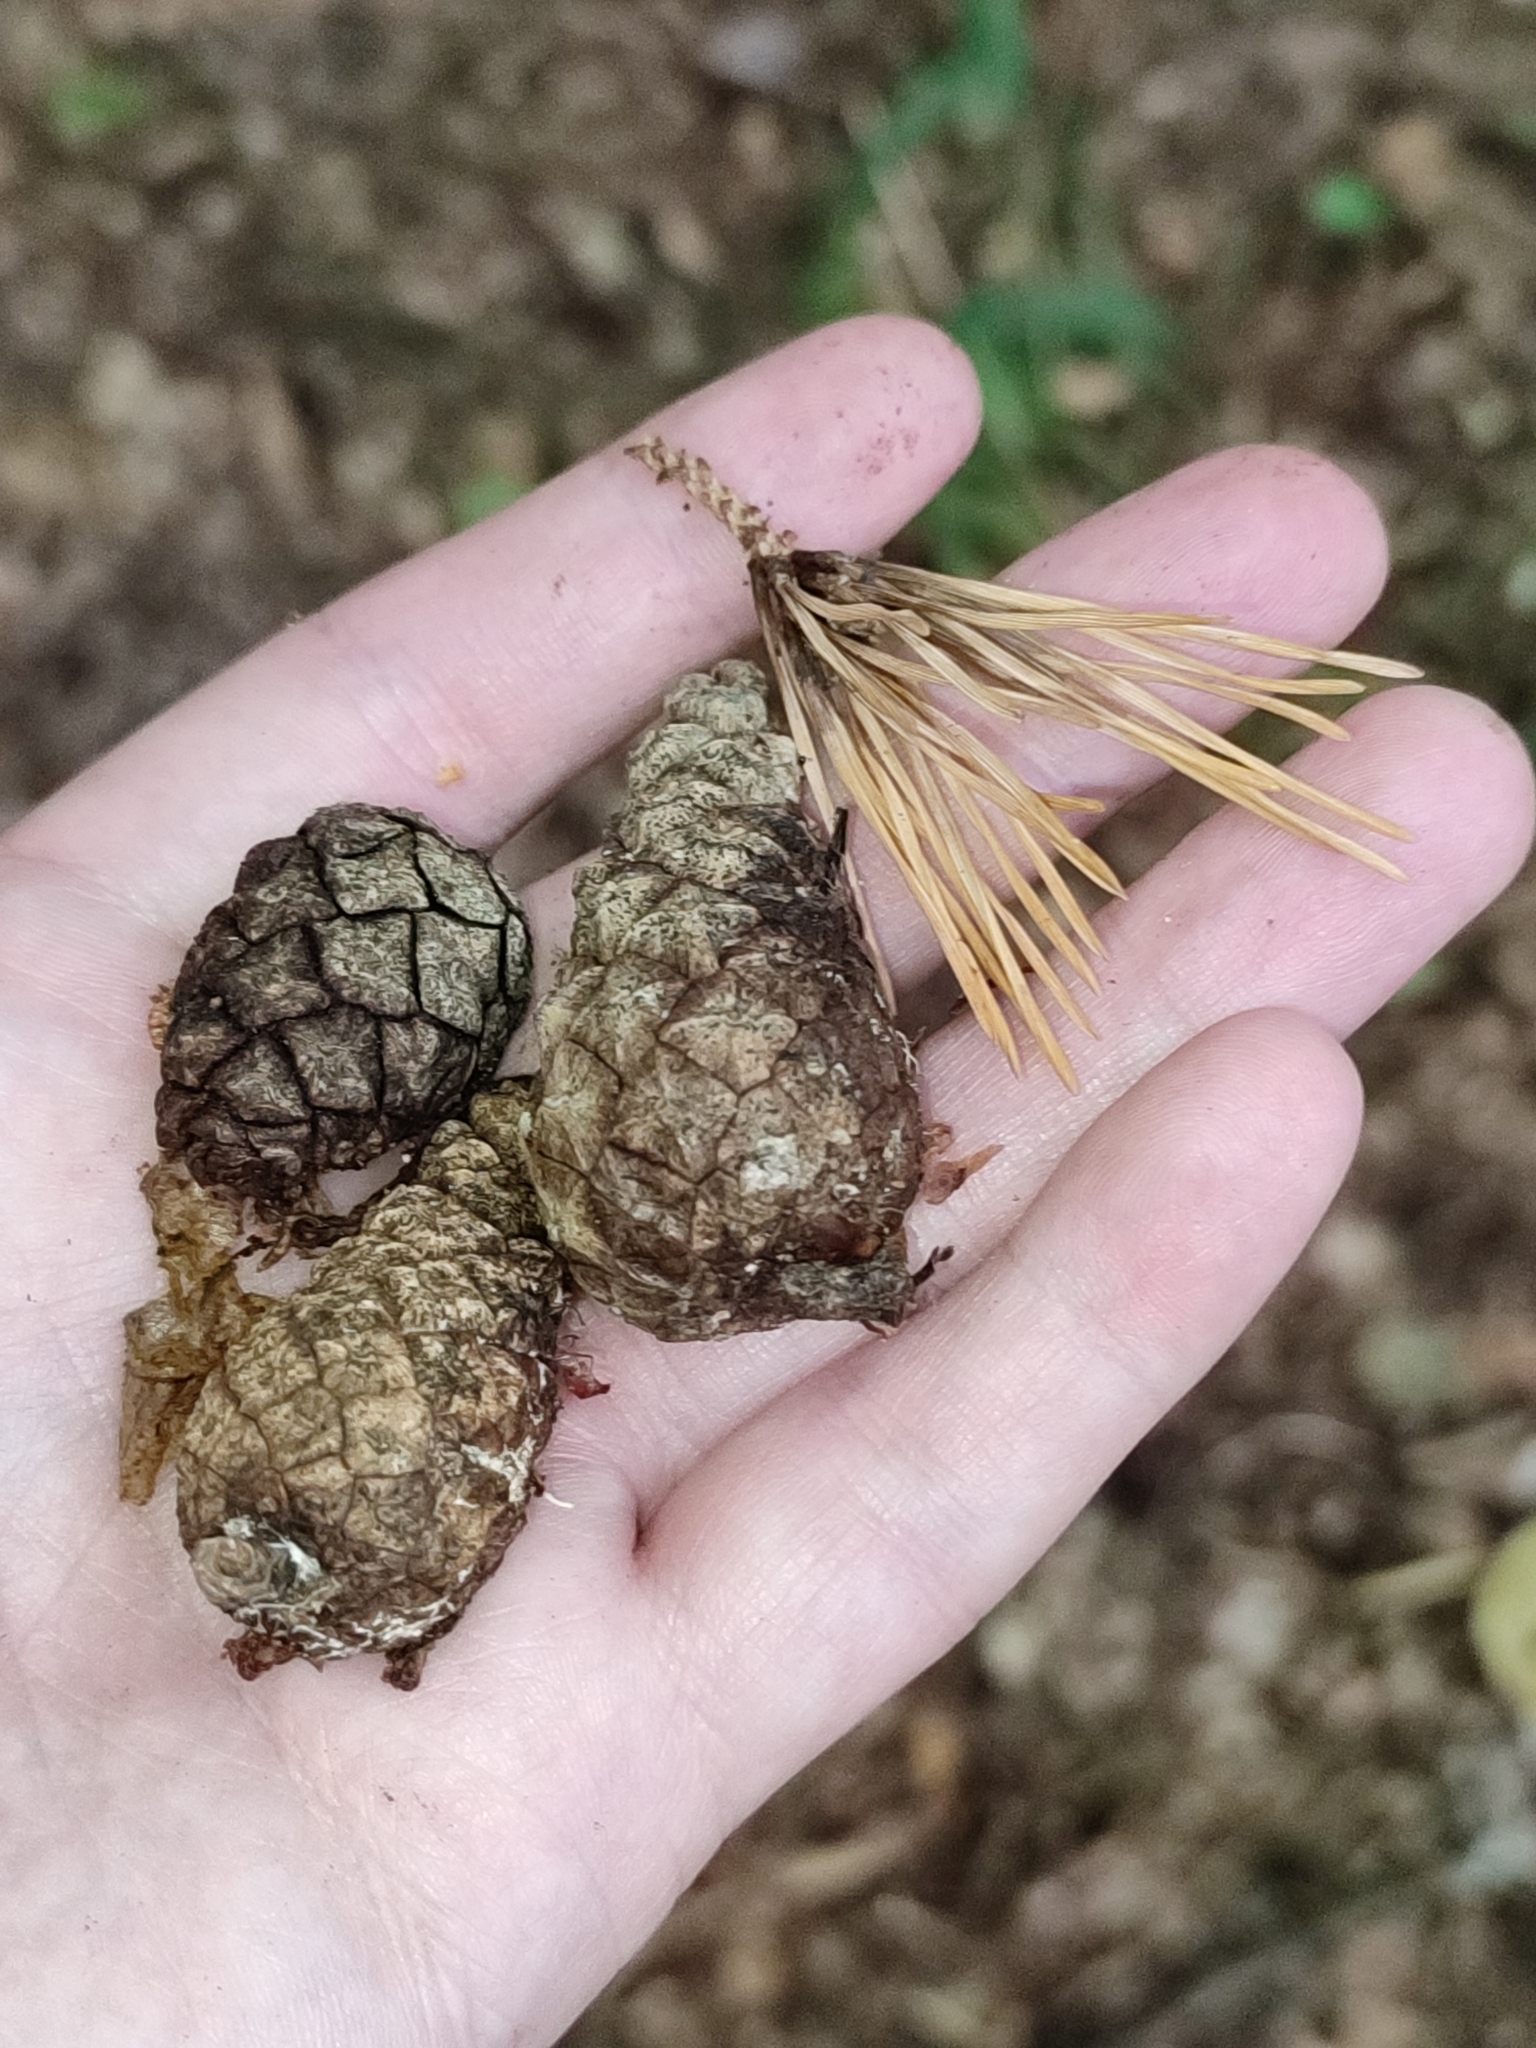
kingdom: Plantae
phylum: Tracheophyta
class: Pinopsida
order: Pinales
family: Pinaceae
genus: Pinus
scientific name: Pinus sylvestris
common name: Scots pine
